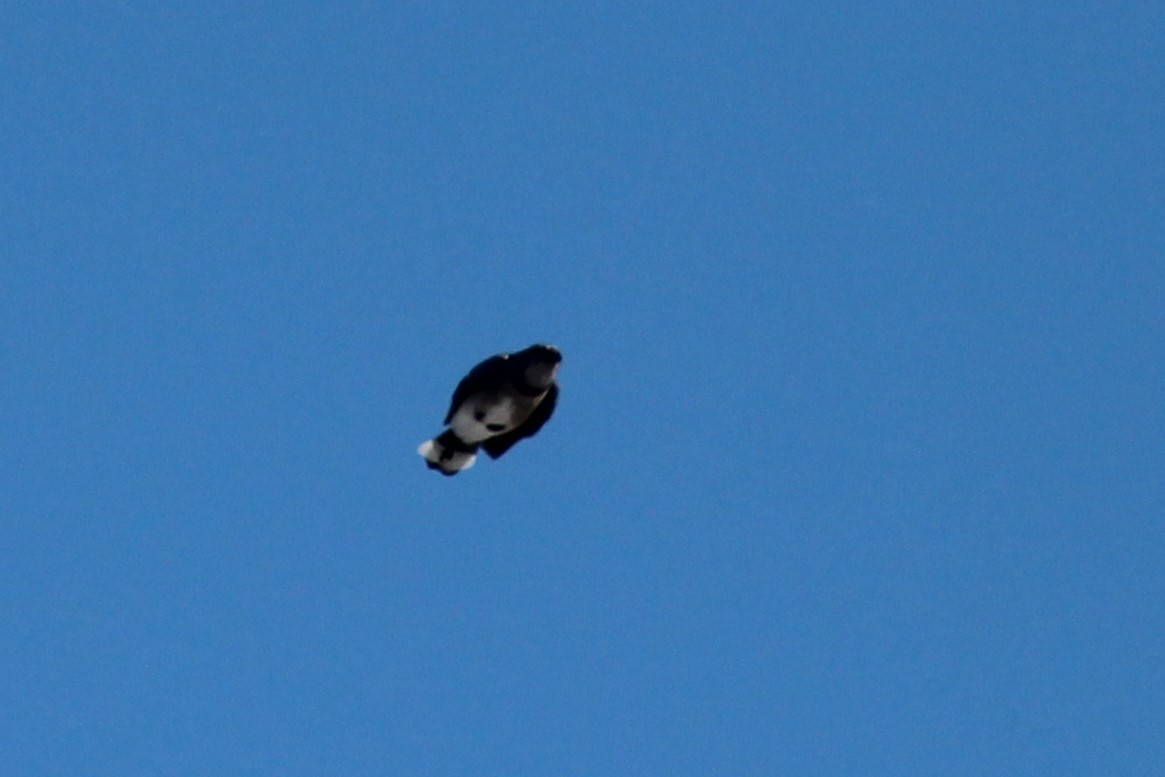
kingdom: Animalia
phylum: Chordata
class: Aves
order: Passeriformes
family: Corvidae
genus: Cyanocitta
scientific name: Cyanocitta cristata
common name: Blue jay
